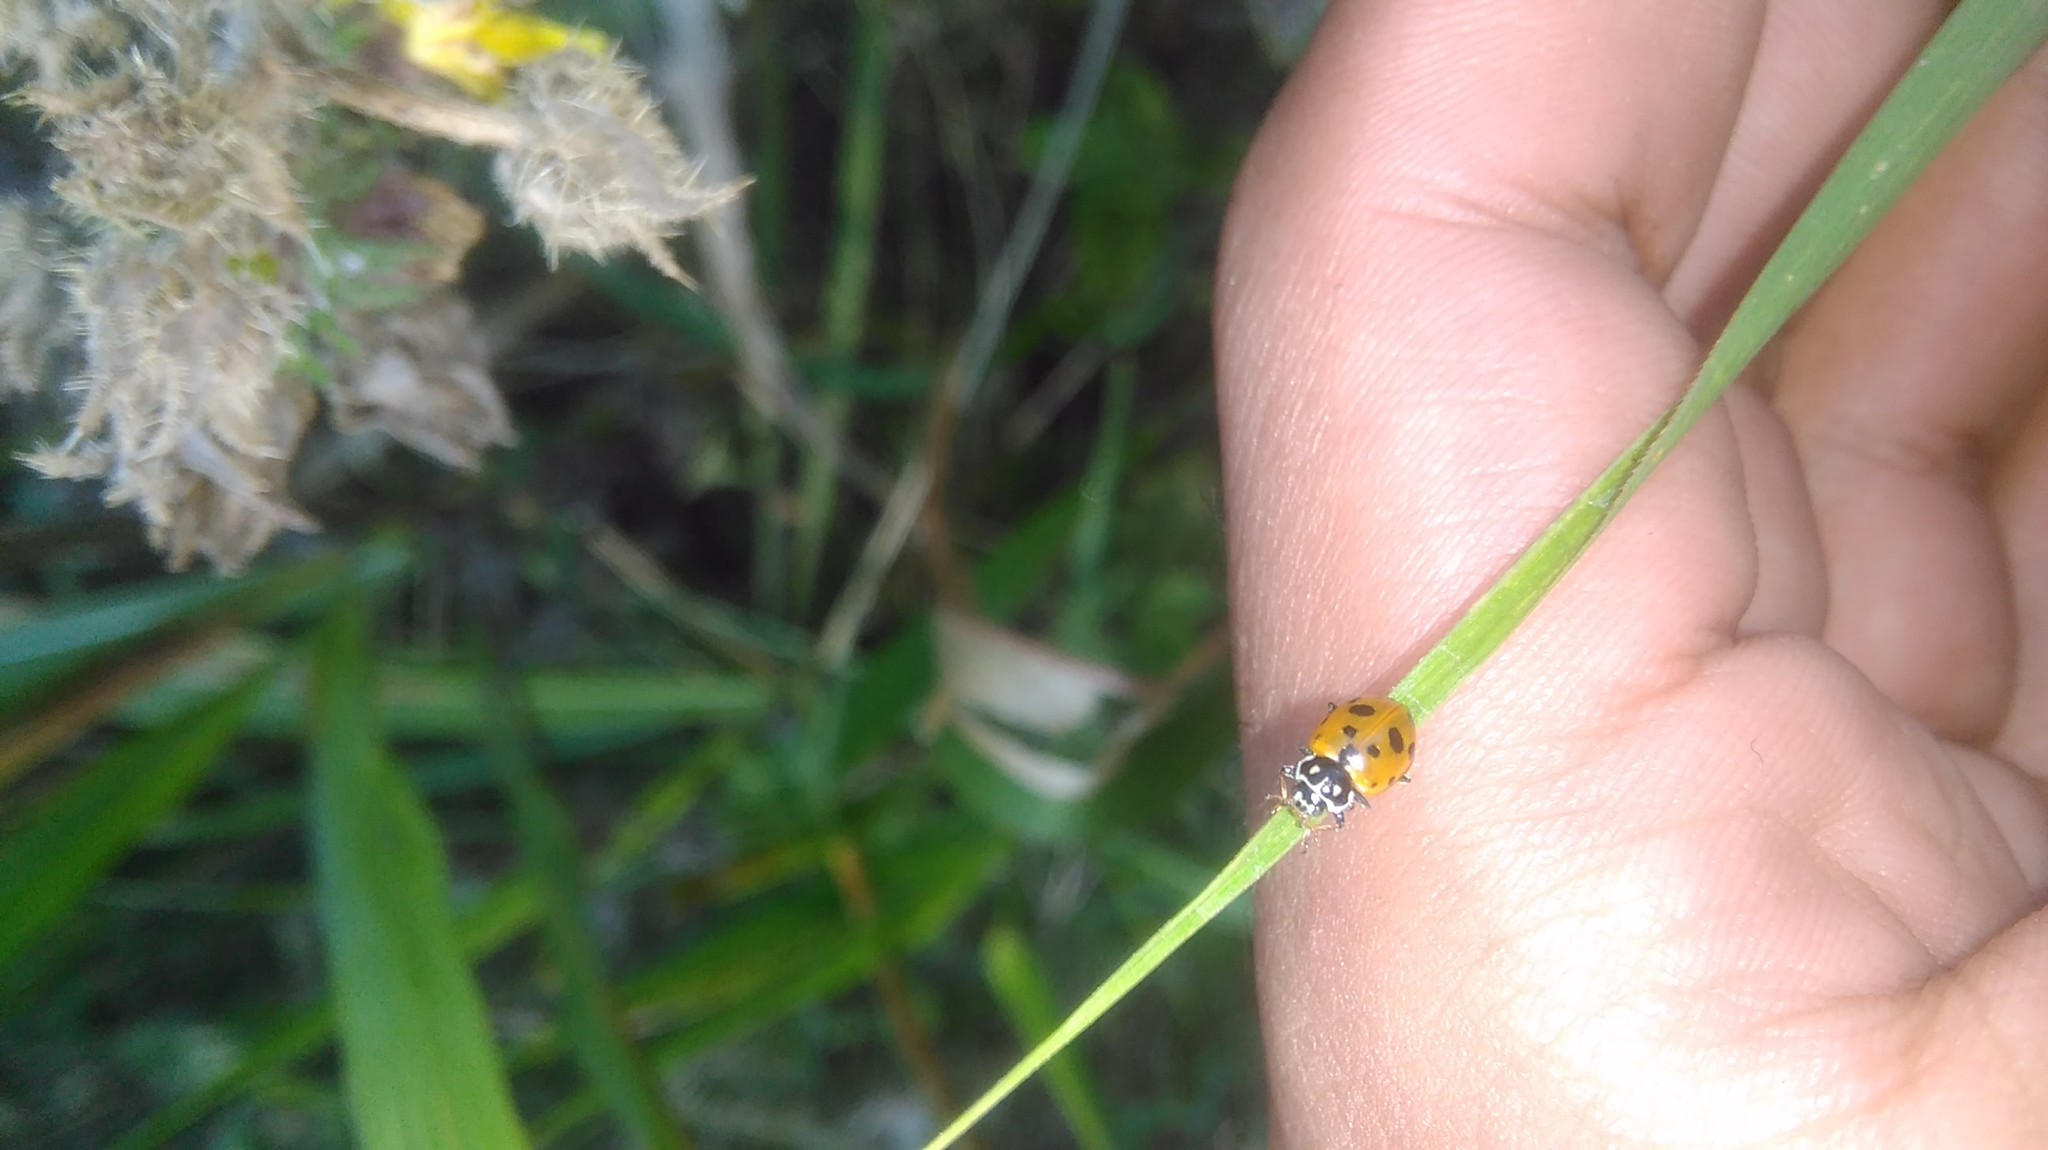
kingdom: Animalia
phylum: Arthropoda
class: Insecta
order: Coleoptera
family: Coccinellidae
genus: Hippodamia
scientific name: Hippodamia variegata
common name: Ladybird beetle
